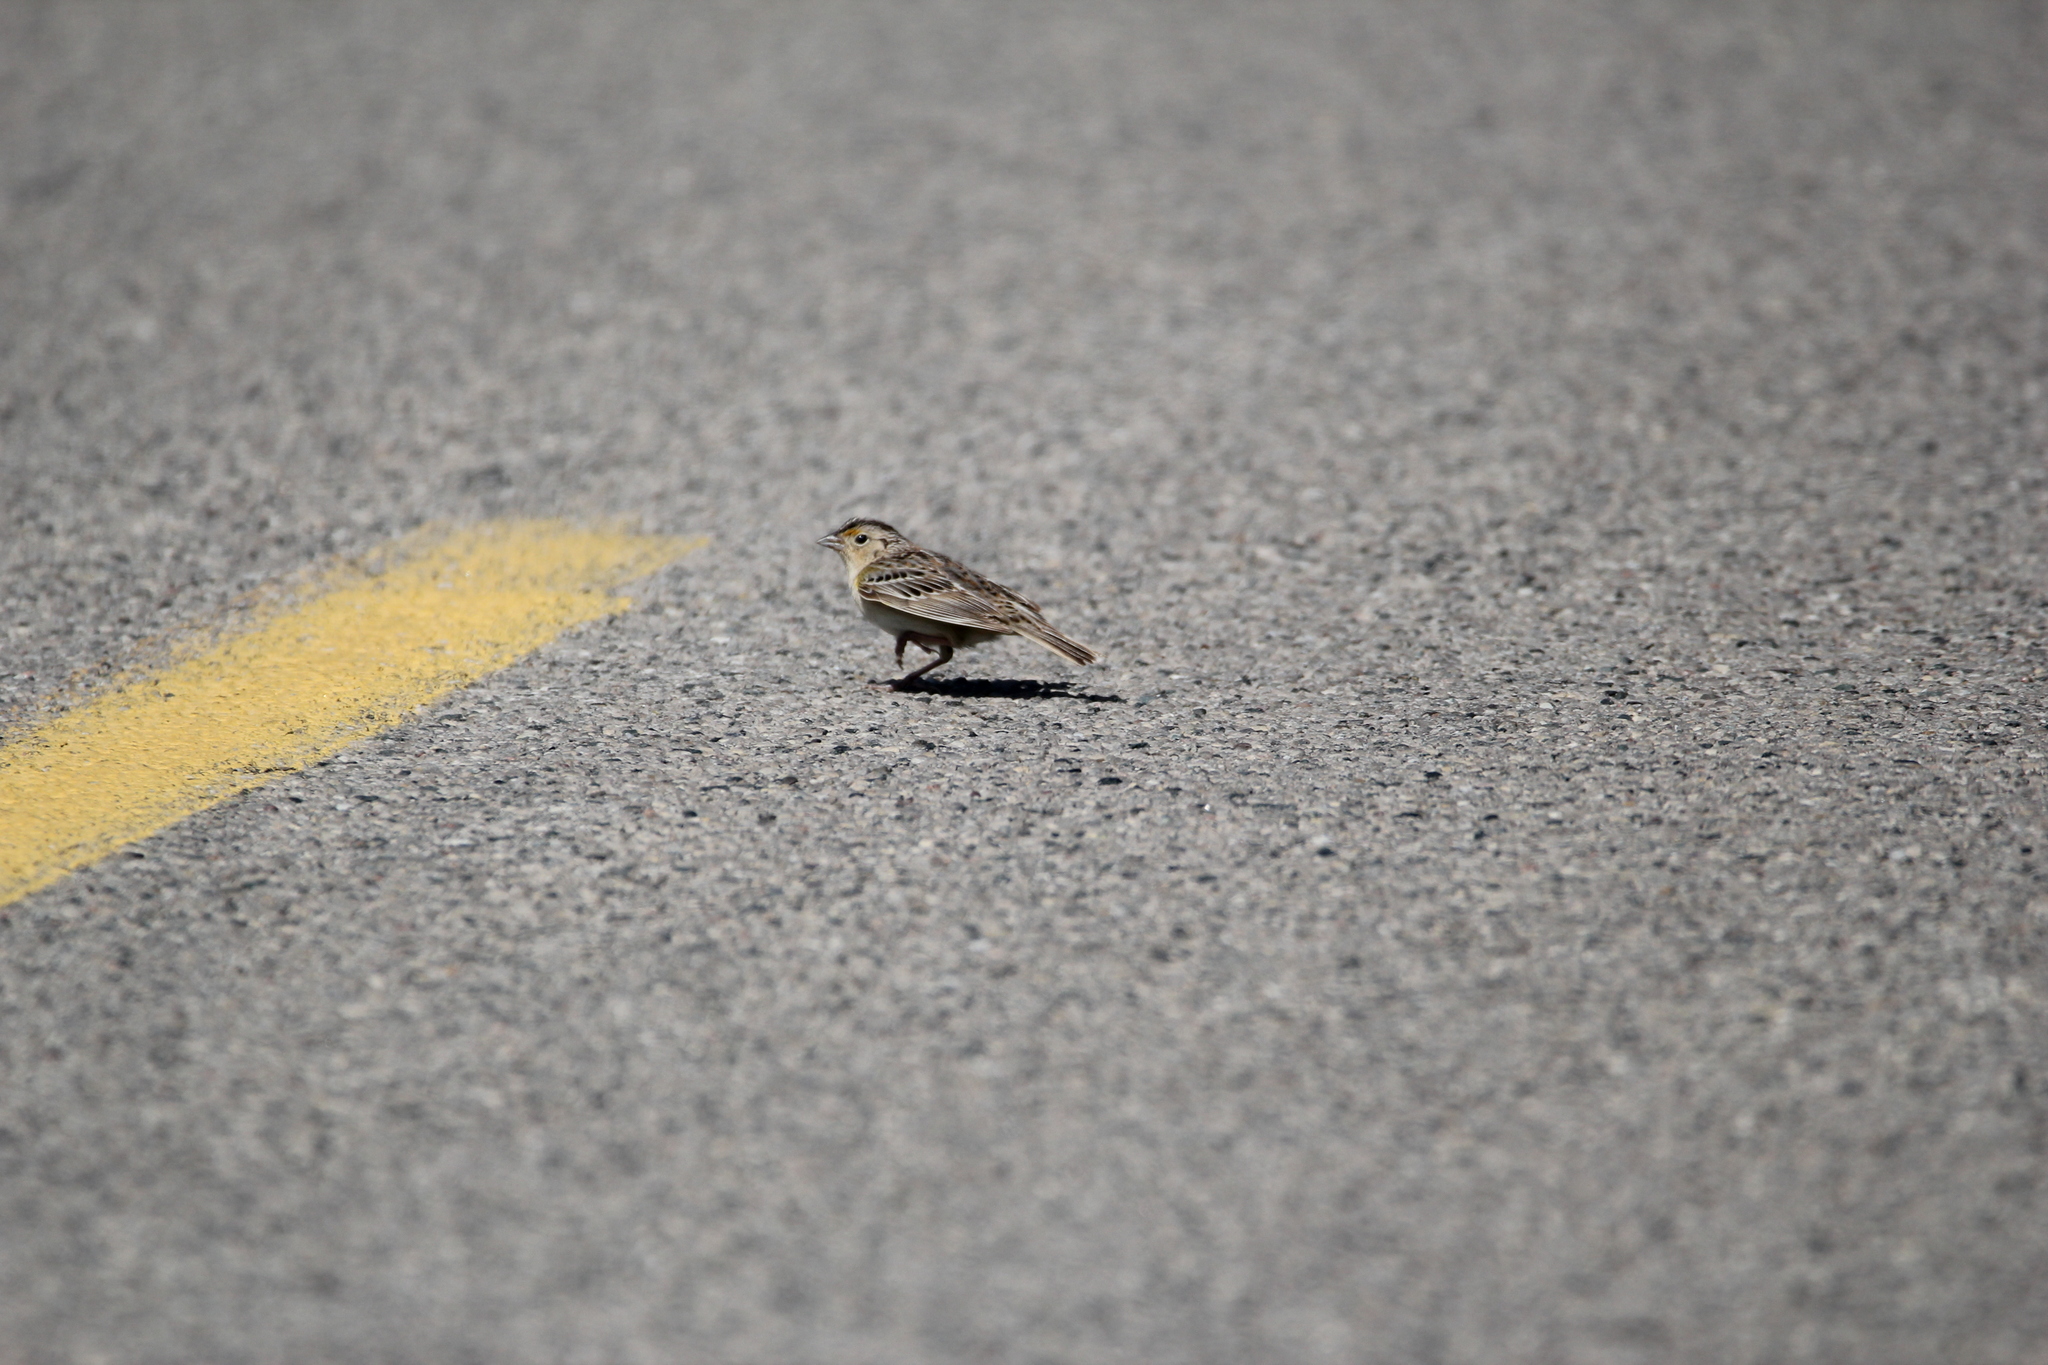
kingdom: Animalia
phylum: Chordata
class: Aves
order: Passeriformes
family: Passerellidae
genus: Ammodramus
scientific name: Ammodramus savannarum
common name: Grasshopper sparrow
